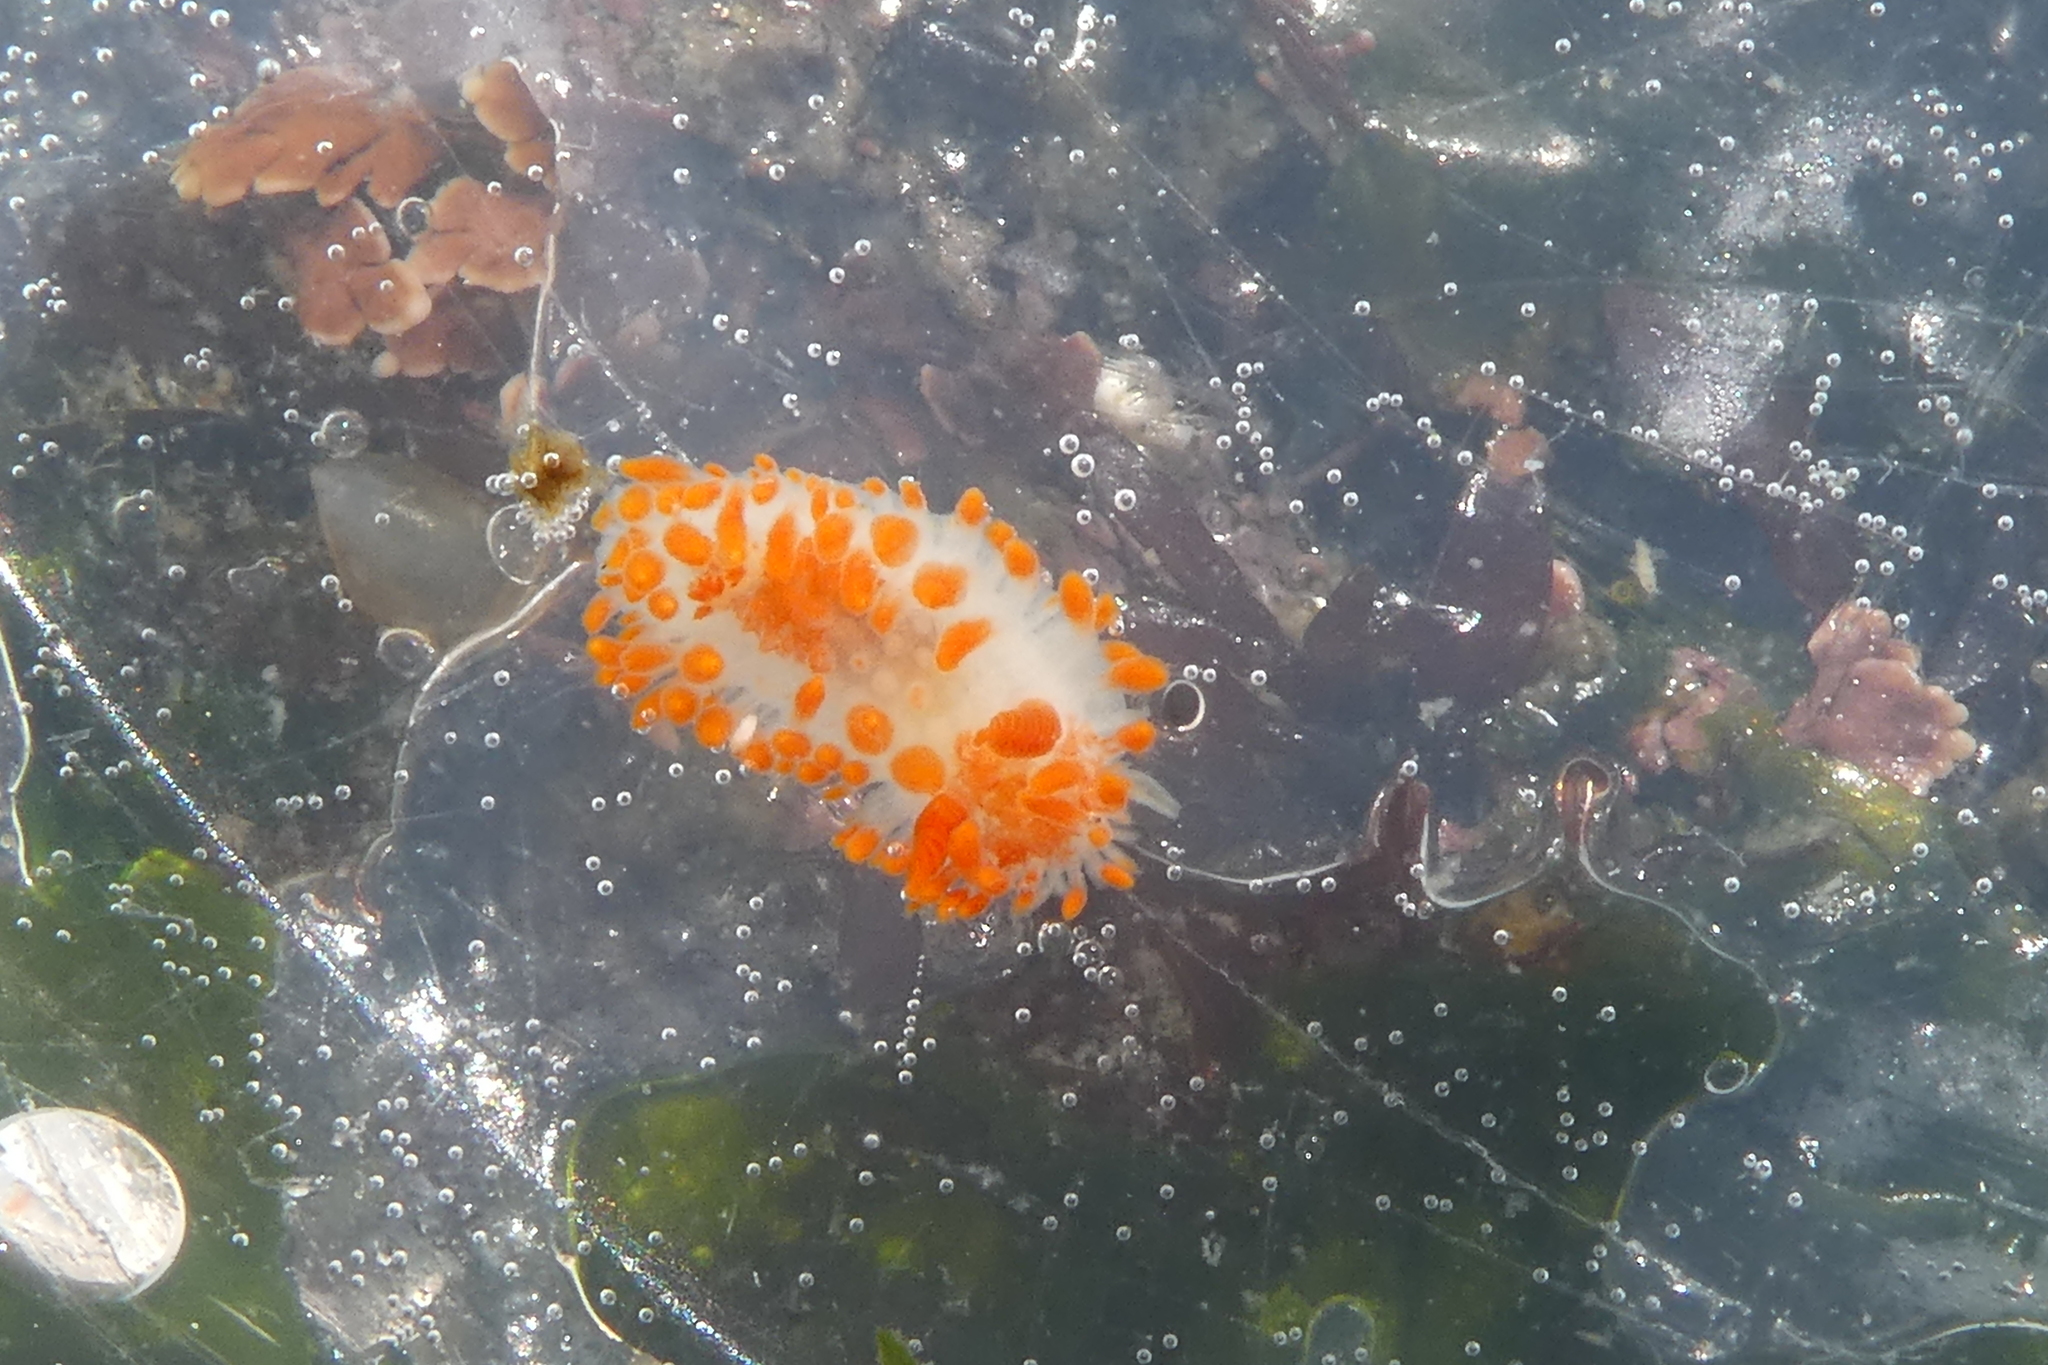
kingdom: Animalia
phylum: Mollusca
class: Gastropoda
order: Nudibranchia
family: Polyceridae
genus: Limacia
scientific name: Limacia cockerelli
